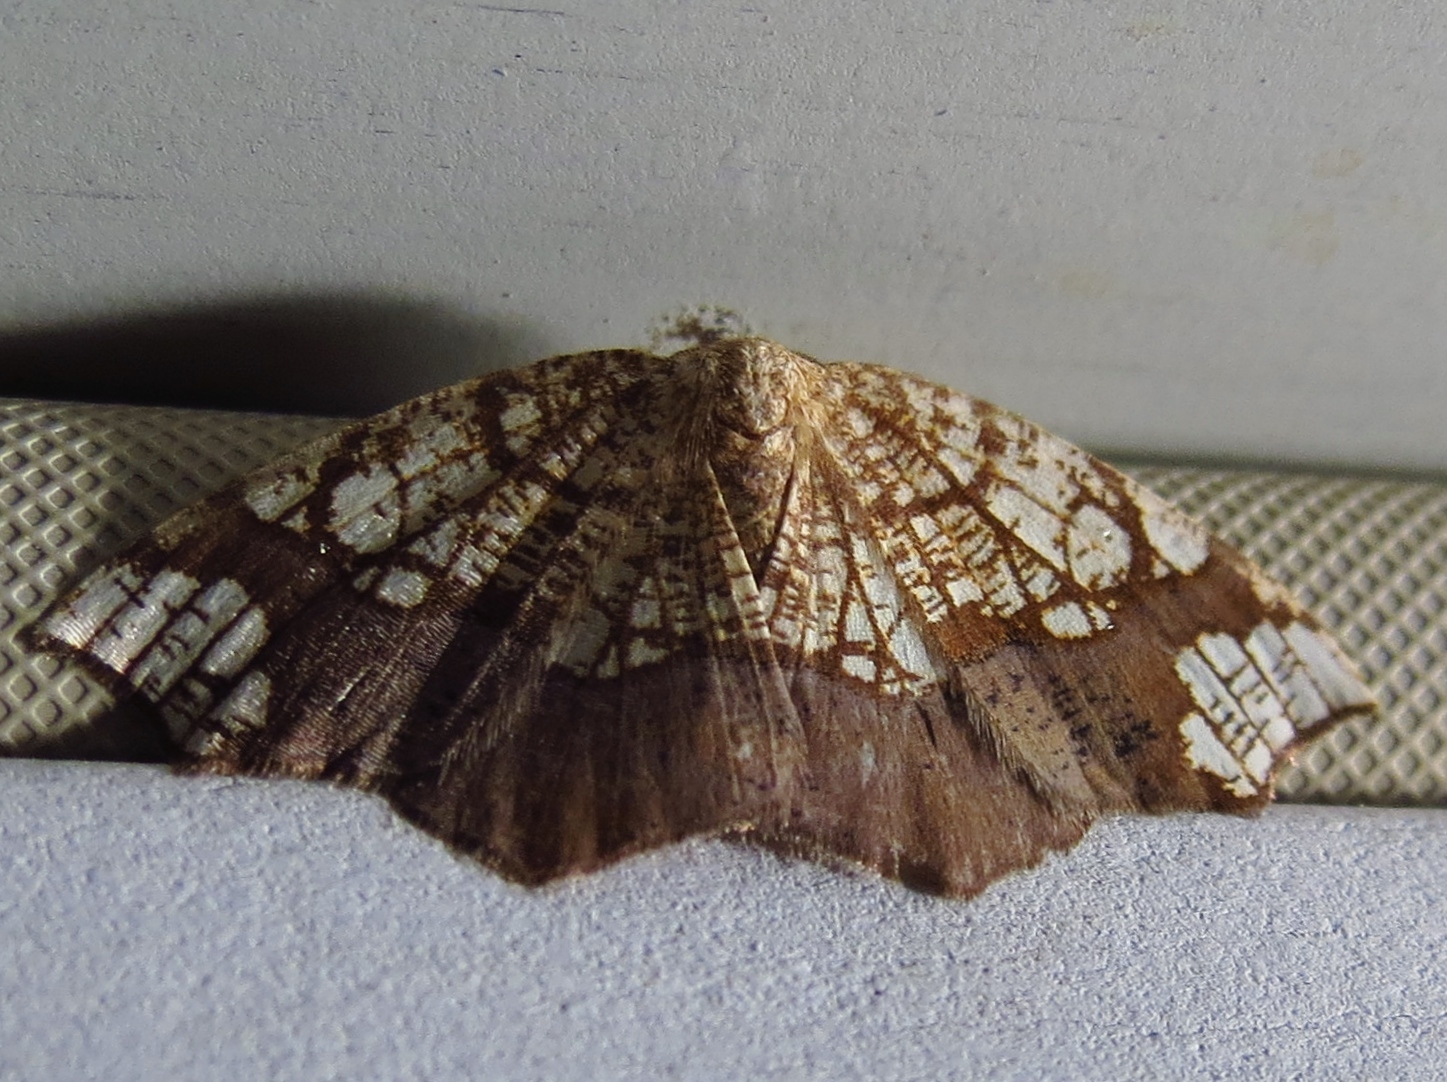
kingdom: Animalia
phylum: Arthropoda
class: Insecta
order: Lepidoptera
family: Geometridae
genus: Nematocampa
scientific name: Nematocampa resistaria
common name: Horned spanworm moth
